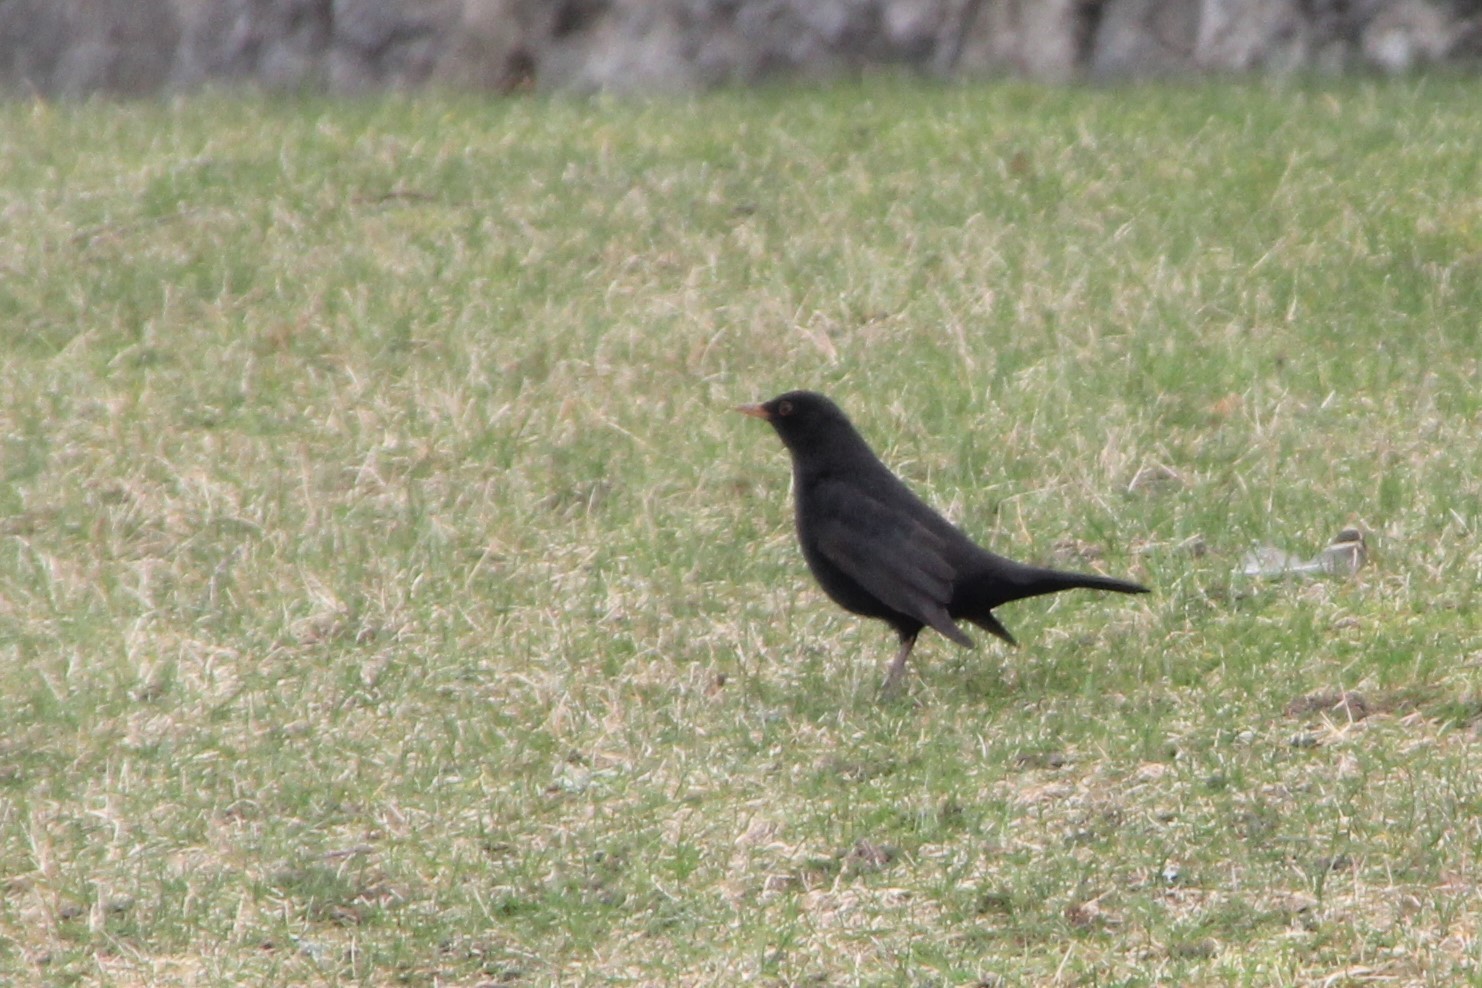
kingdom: Animalia
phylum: Chordata
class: Aves
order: Passeriformes
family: Turdidae
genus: Turdus
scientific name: Turdus merula
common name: Common blackbird
